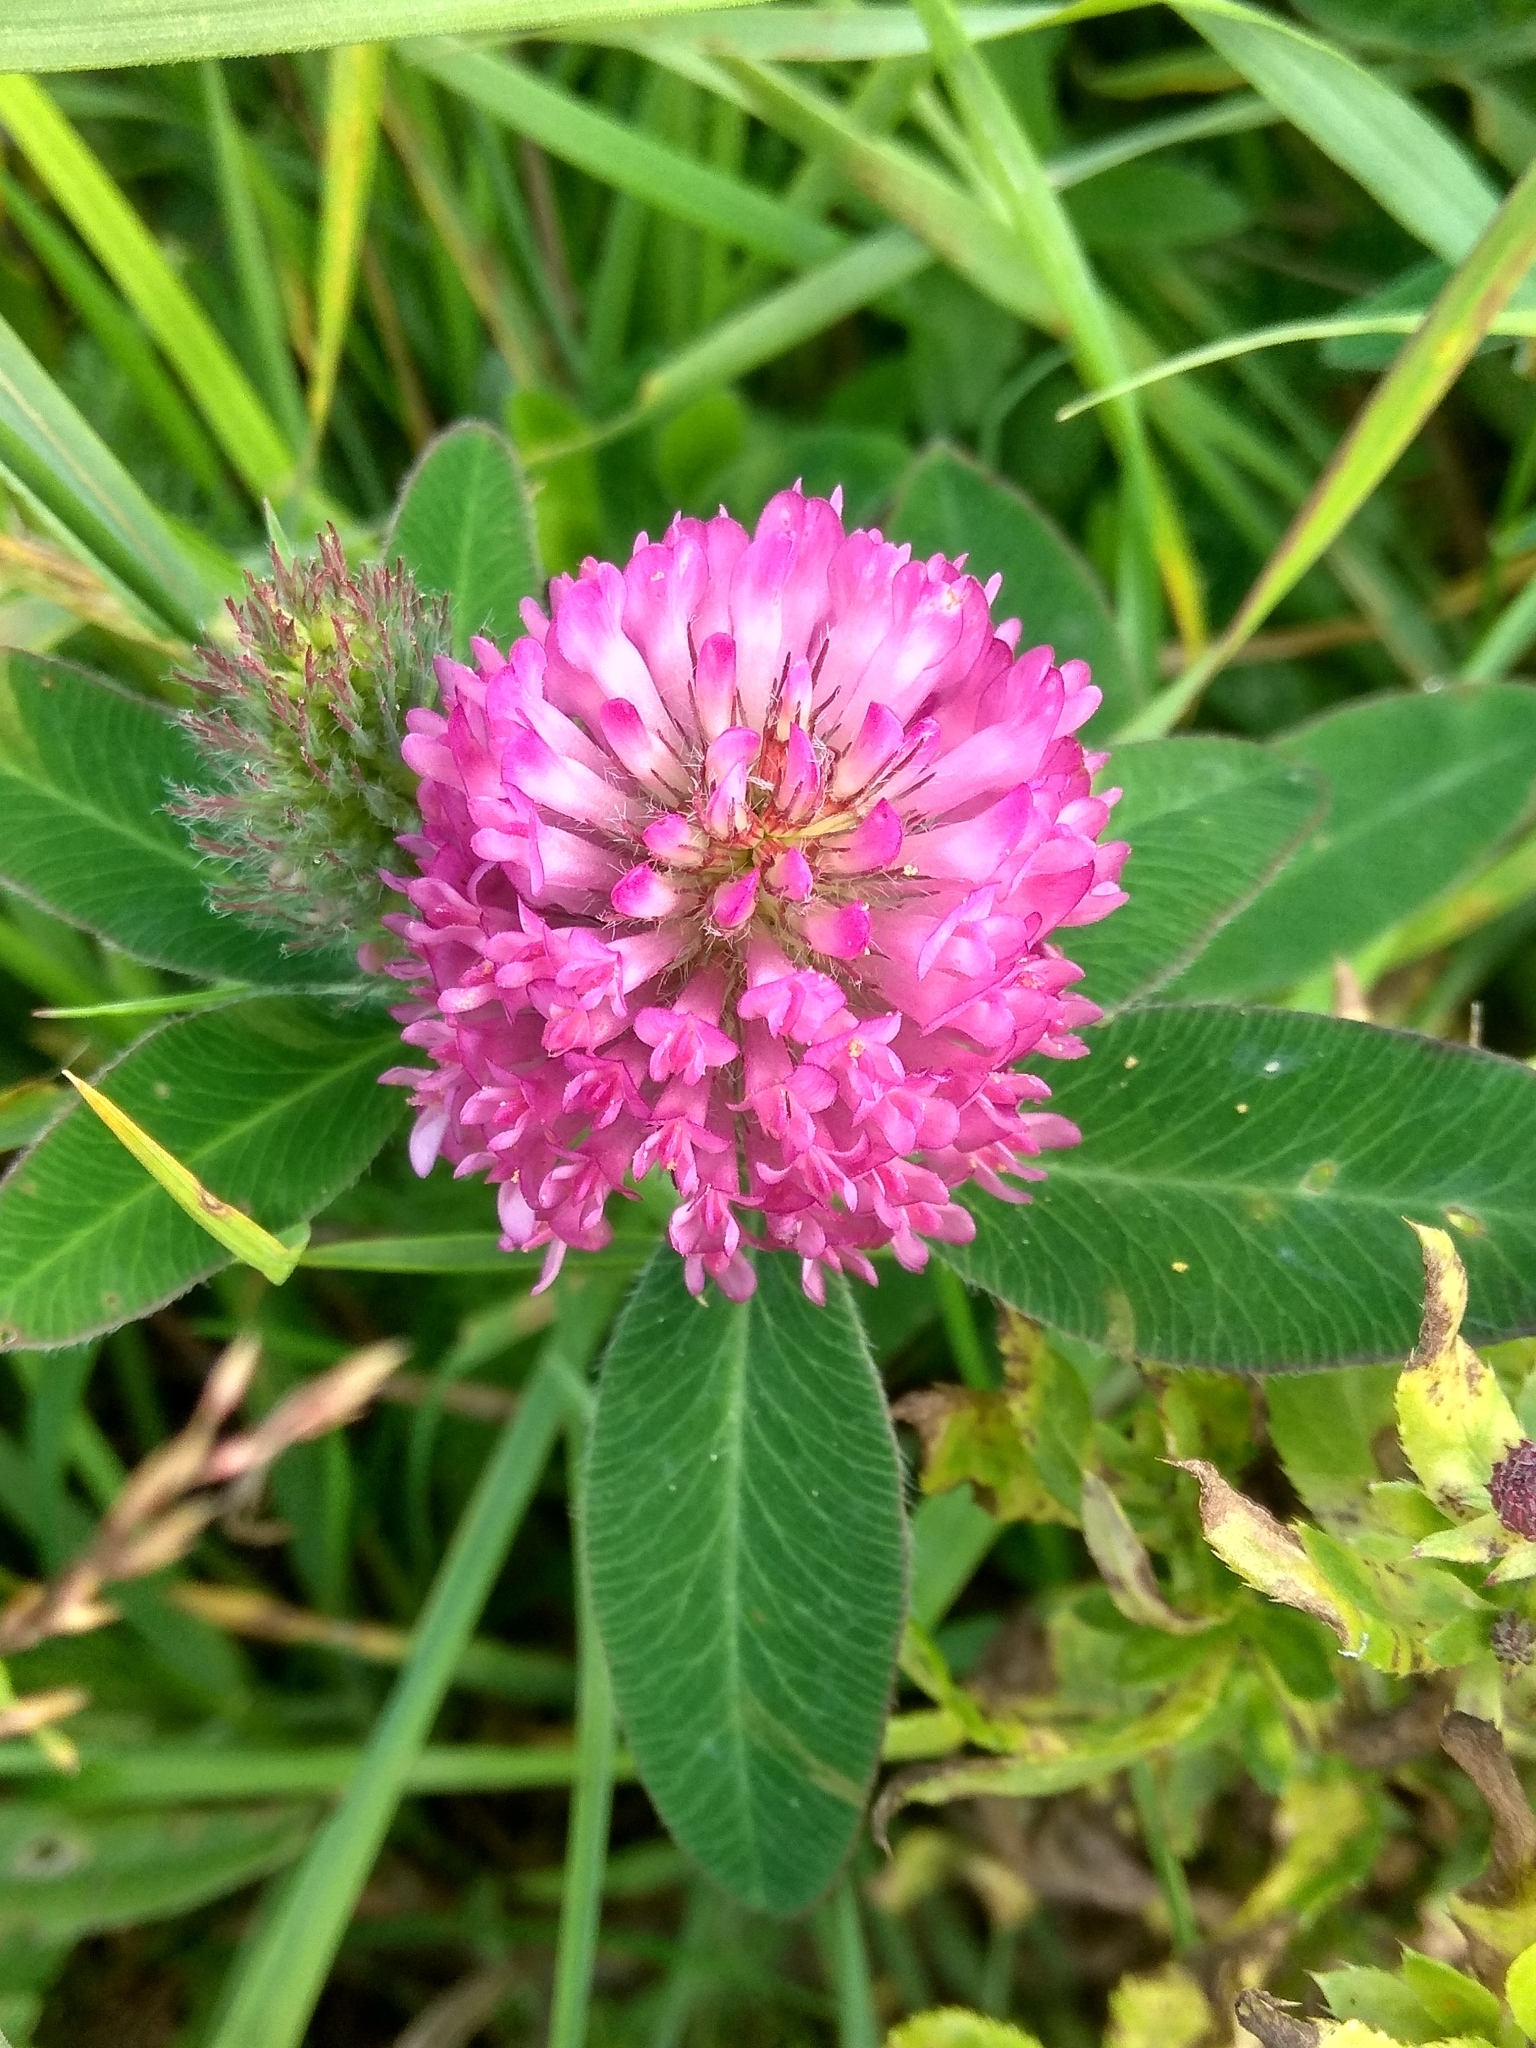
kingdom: Plantae
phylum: Tracheophyta
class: Magnoliopsida
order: Fabales
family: Fabaceae
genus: Trifolium
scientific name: Trifolium medium
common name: Zigzag clover
